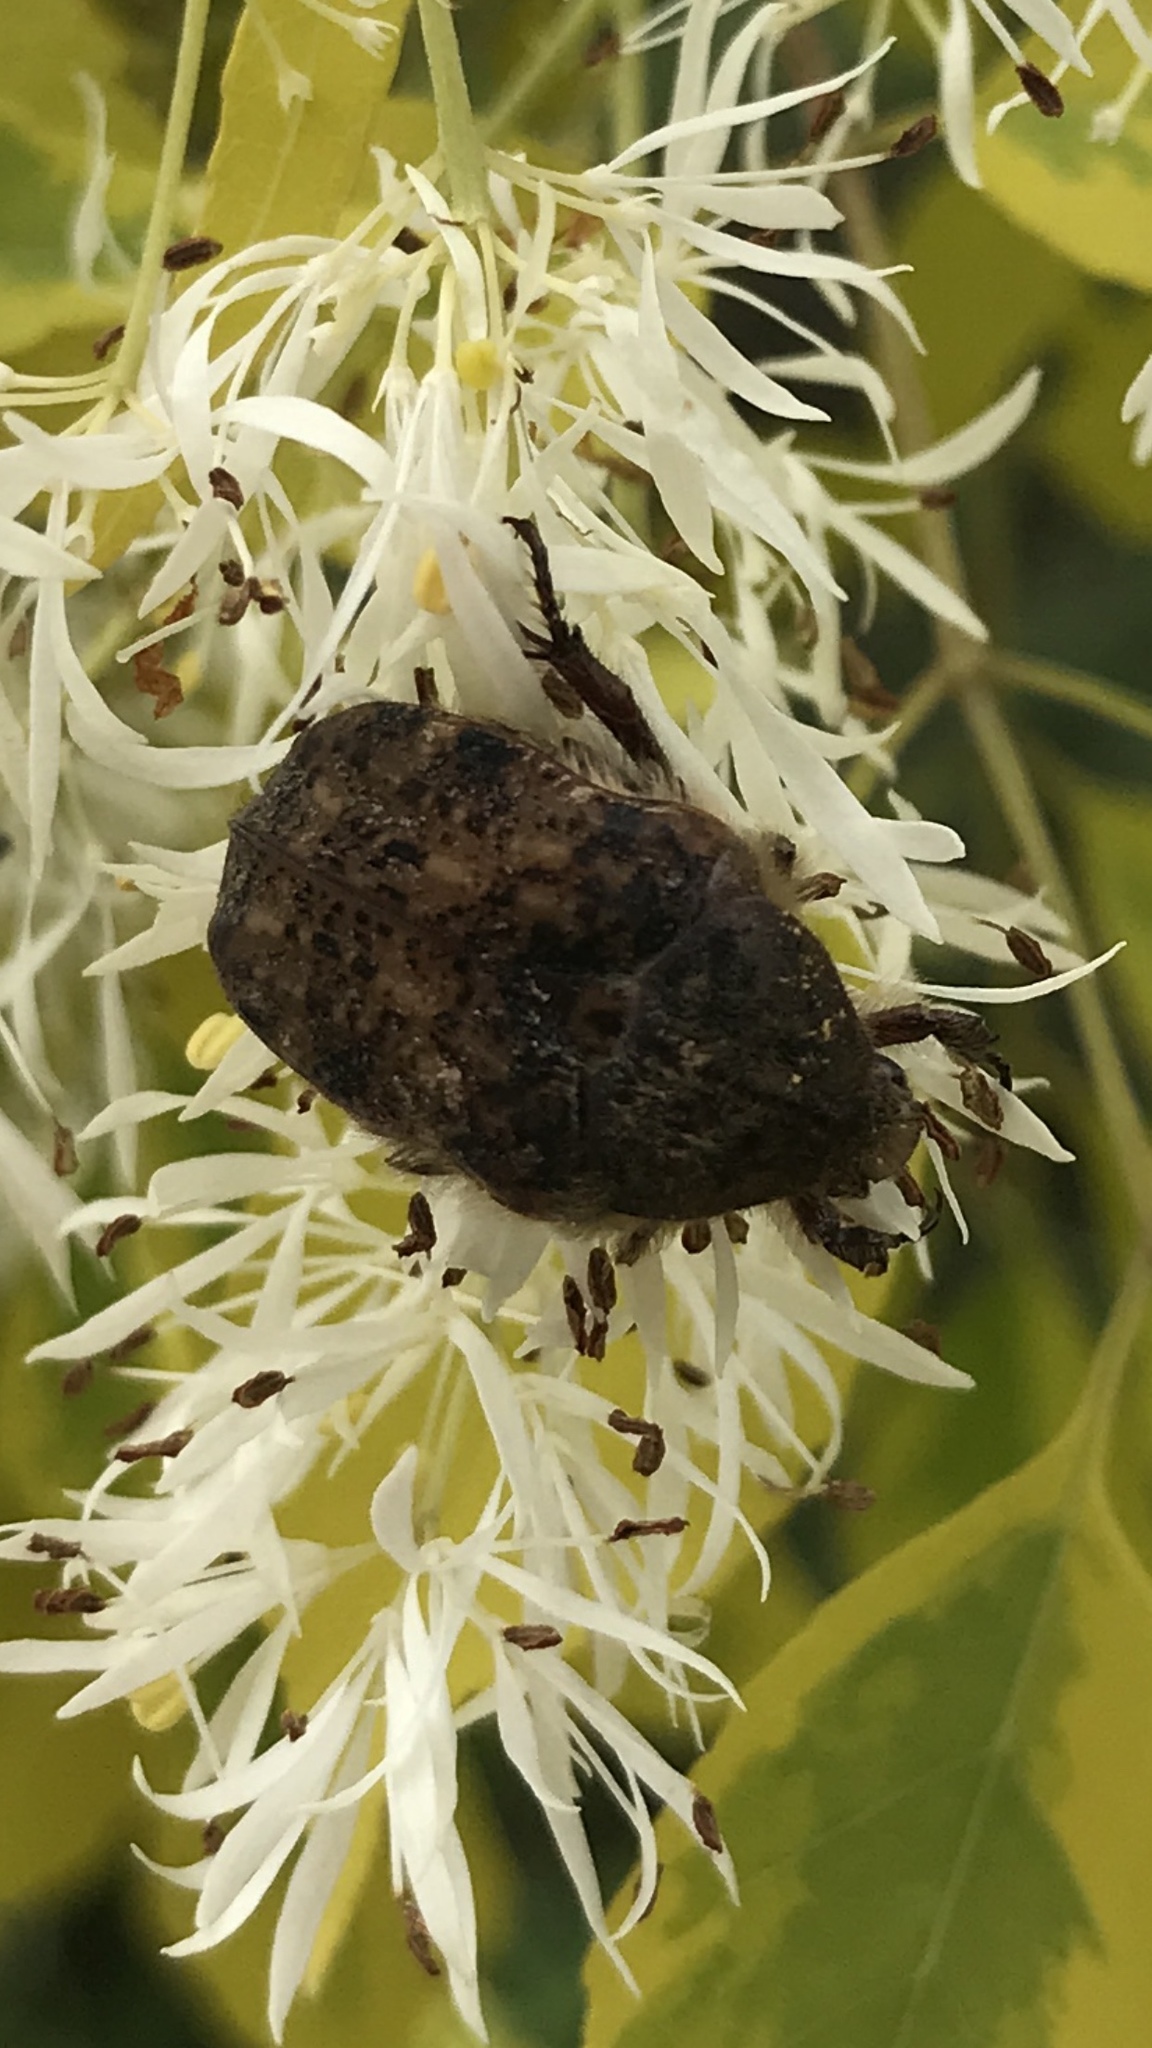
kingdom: Animalia
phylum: Arthropoda
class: Insecta
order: Coleoptera
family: Scarabaeidae
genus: Euphoria
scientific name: Euphoria inda
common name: Bumble flower beetle
